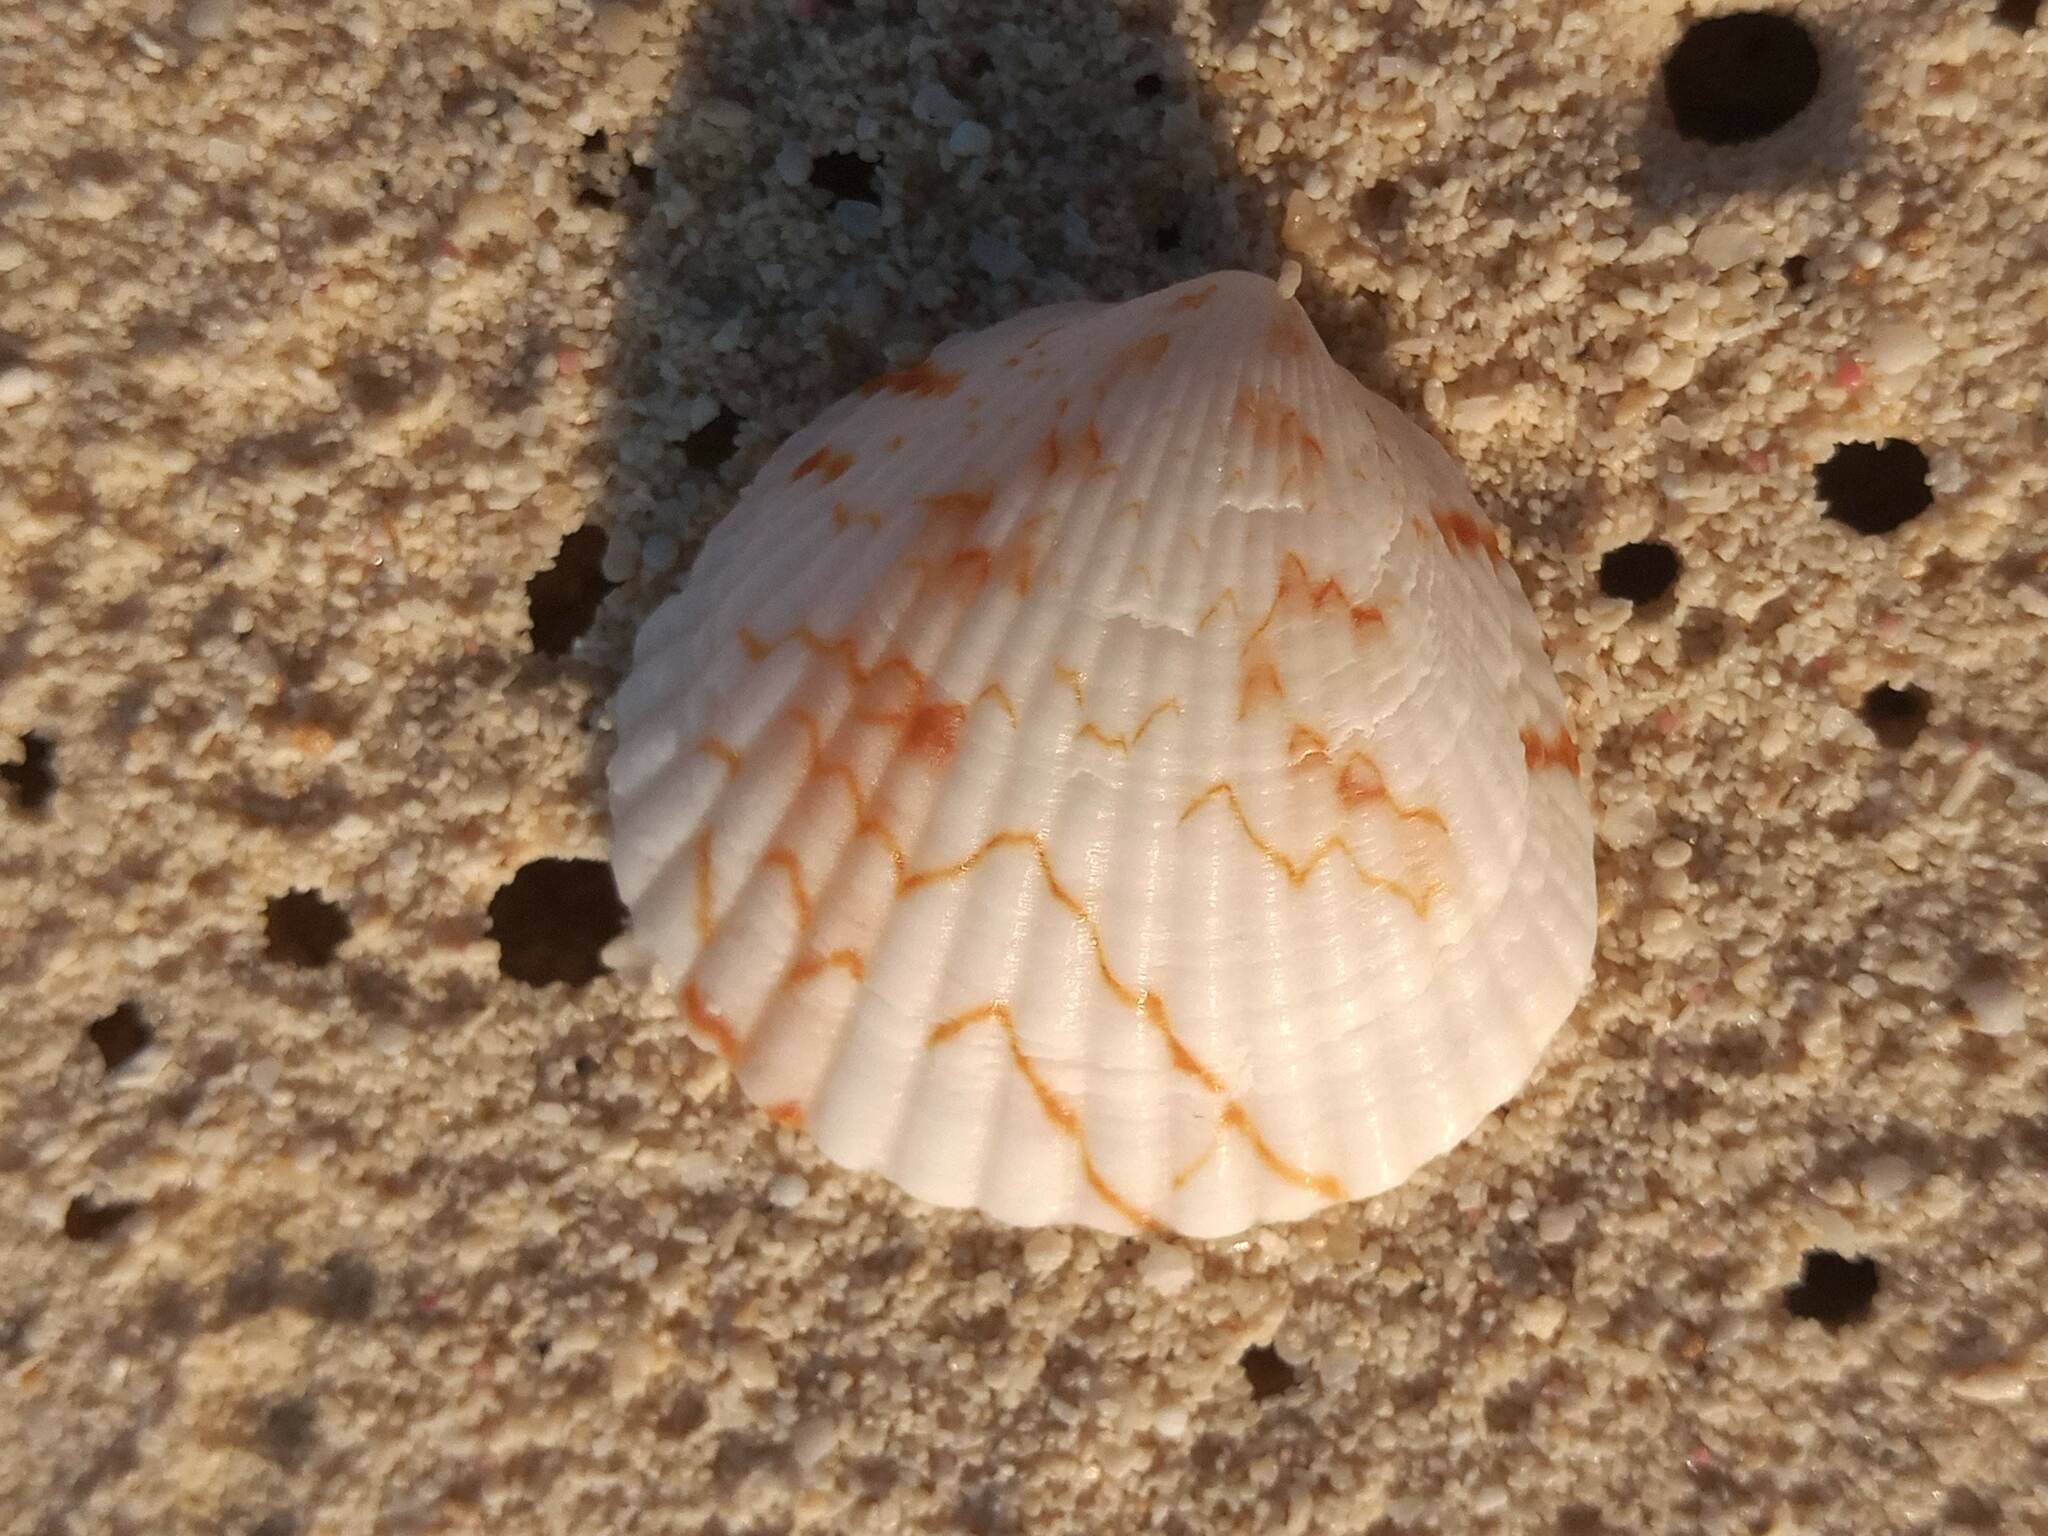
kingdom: Animalia
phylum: Mollusca
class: Bivalvia
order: Arcida
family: Glycymerididae
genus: Tucetona
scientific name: Tucetona pectinata
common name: Comb bittersweet
